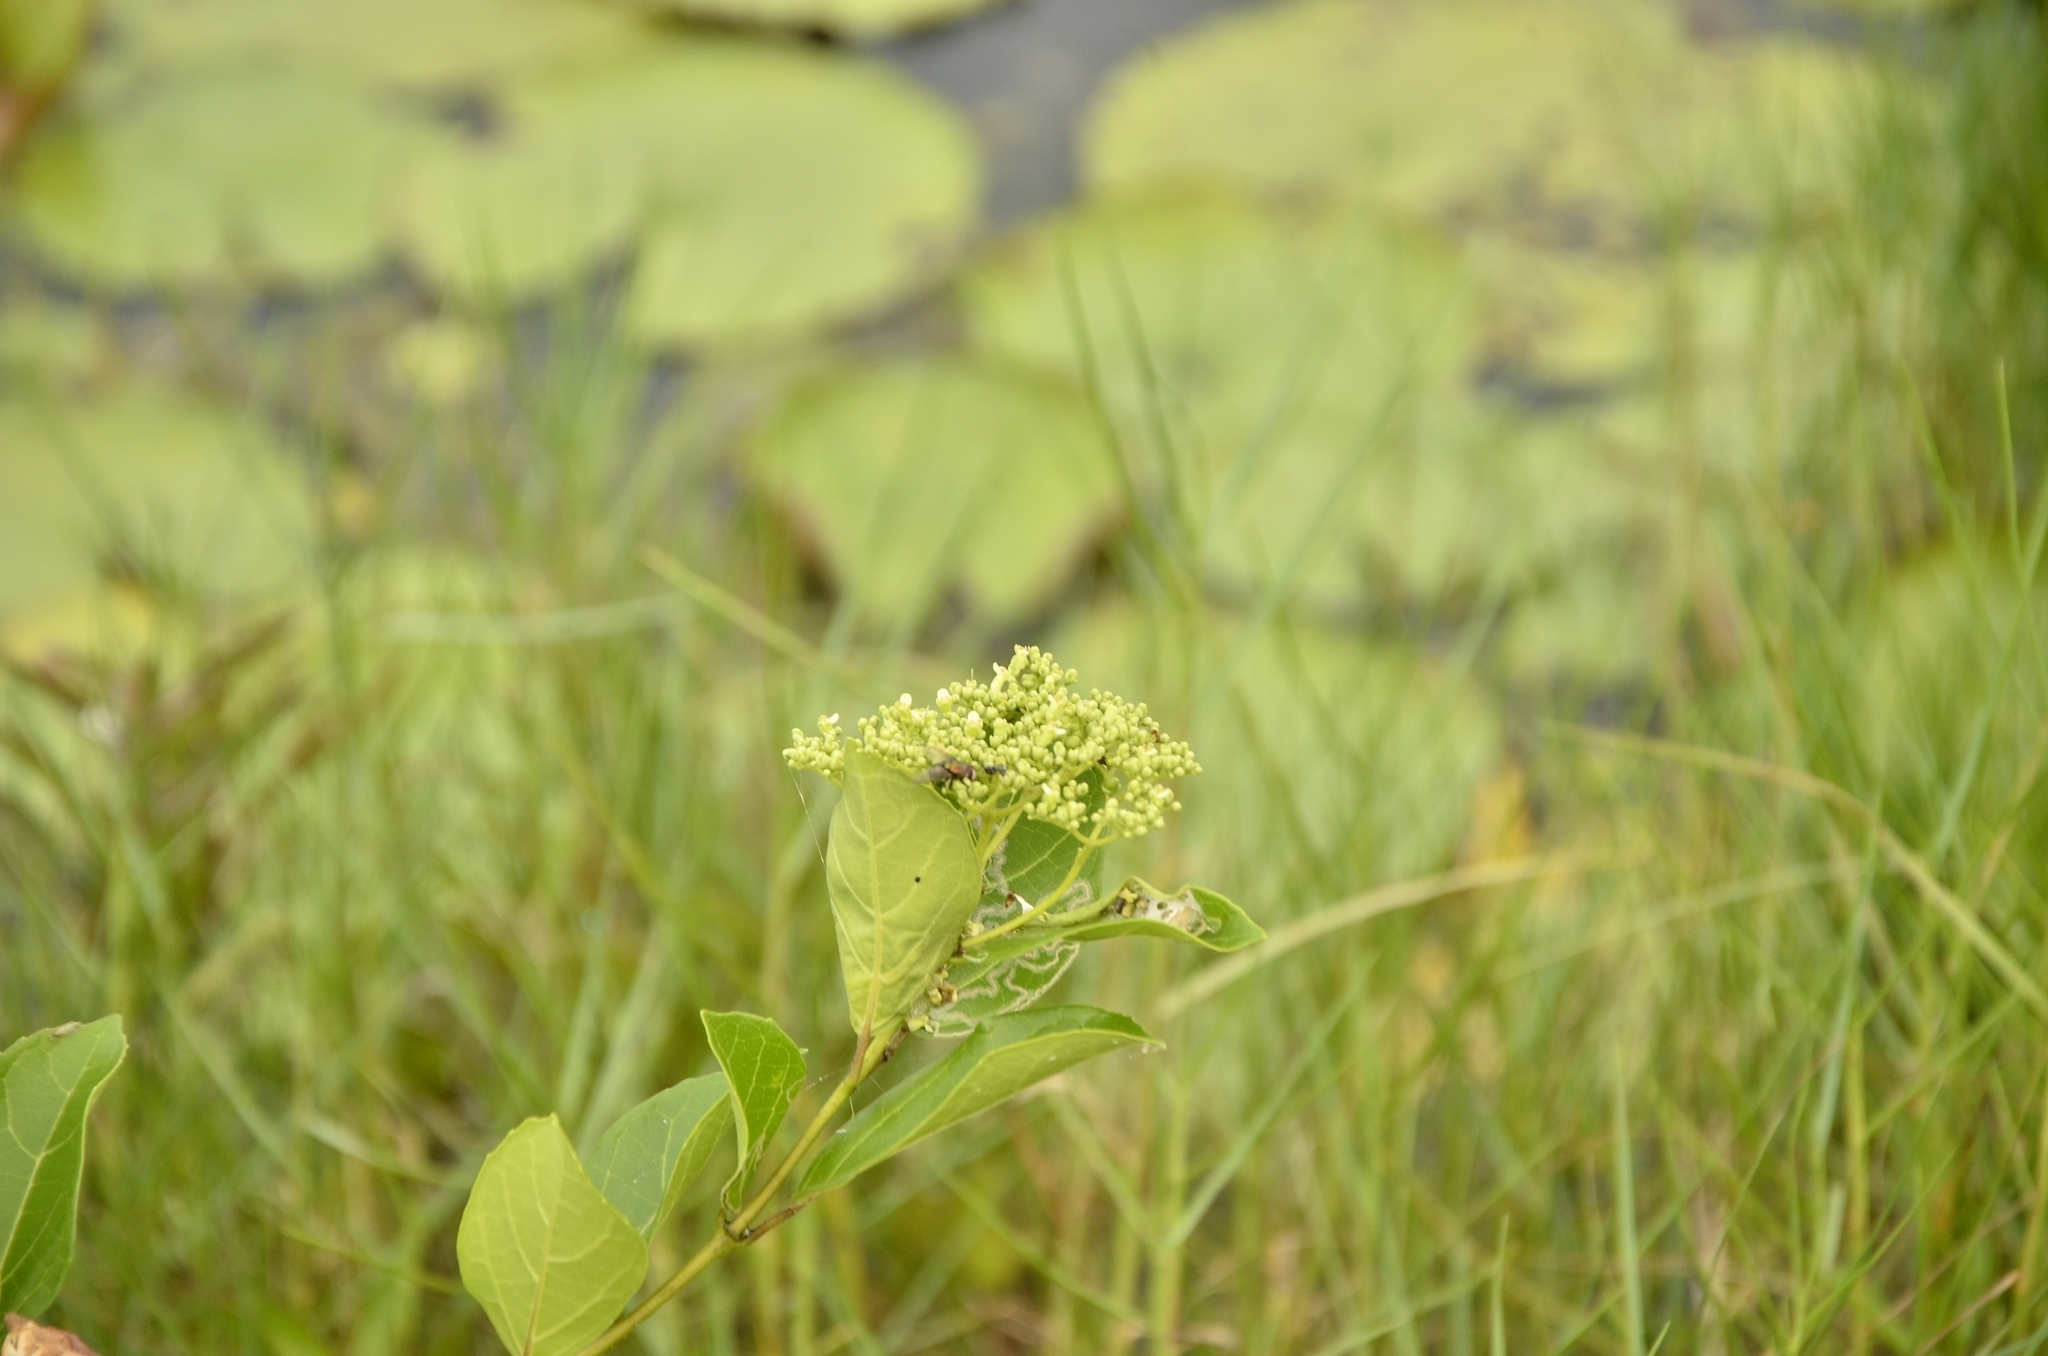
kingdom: Plantae
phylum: Tracheophyta
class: Magnoliopsida
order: Lamiales
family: Lamiaceae
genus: Premna
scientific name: Premna serratifolia
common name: Bastard guelder
